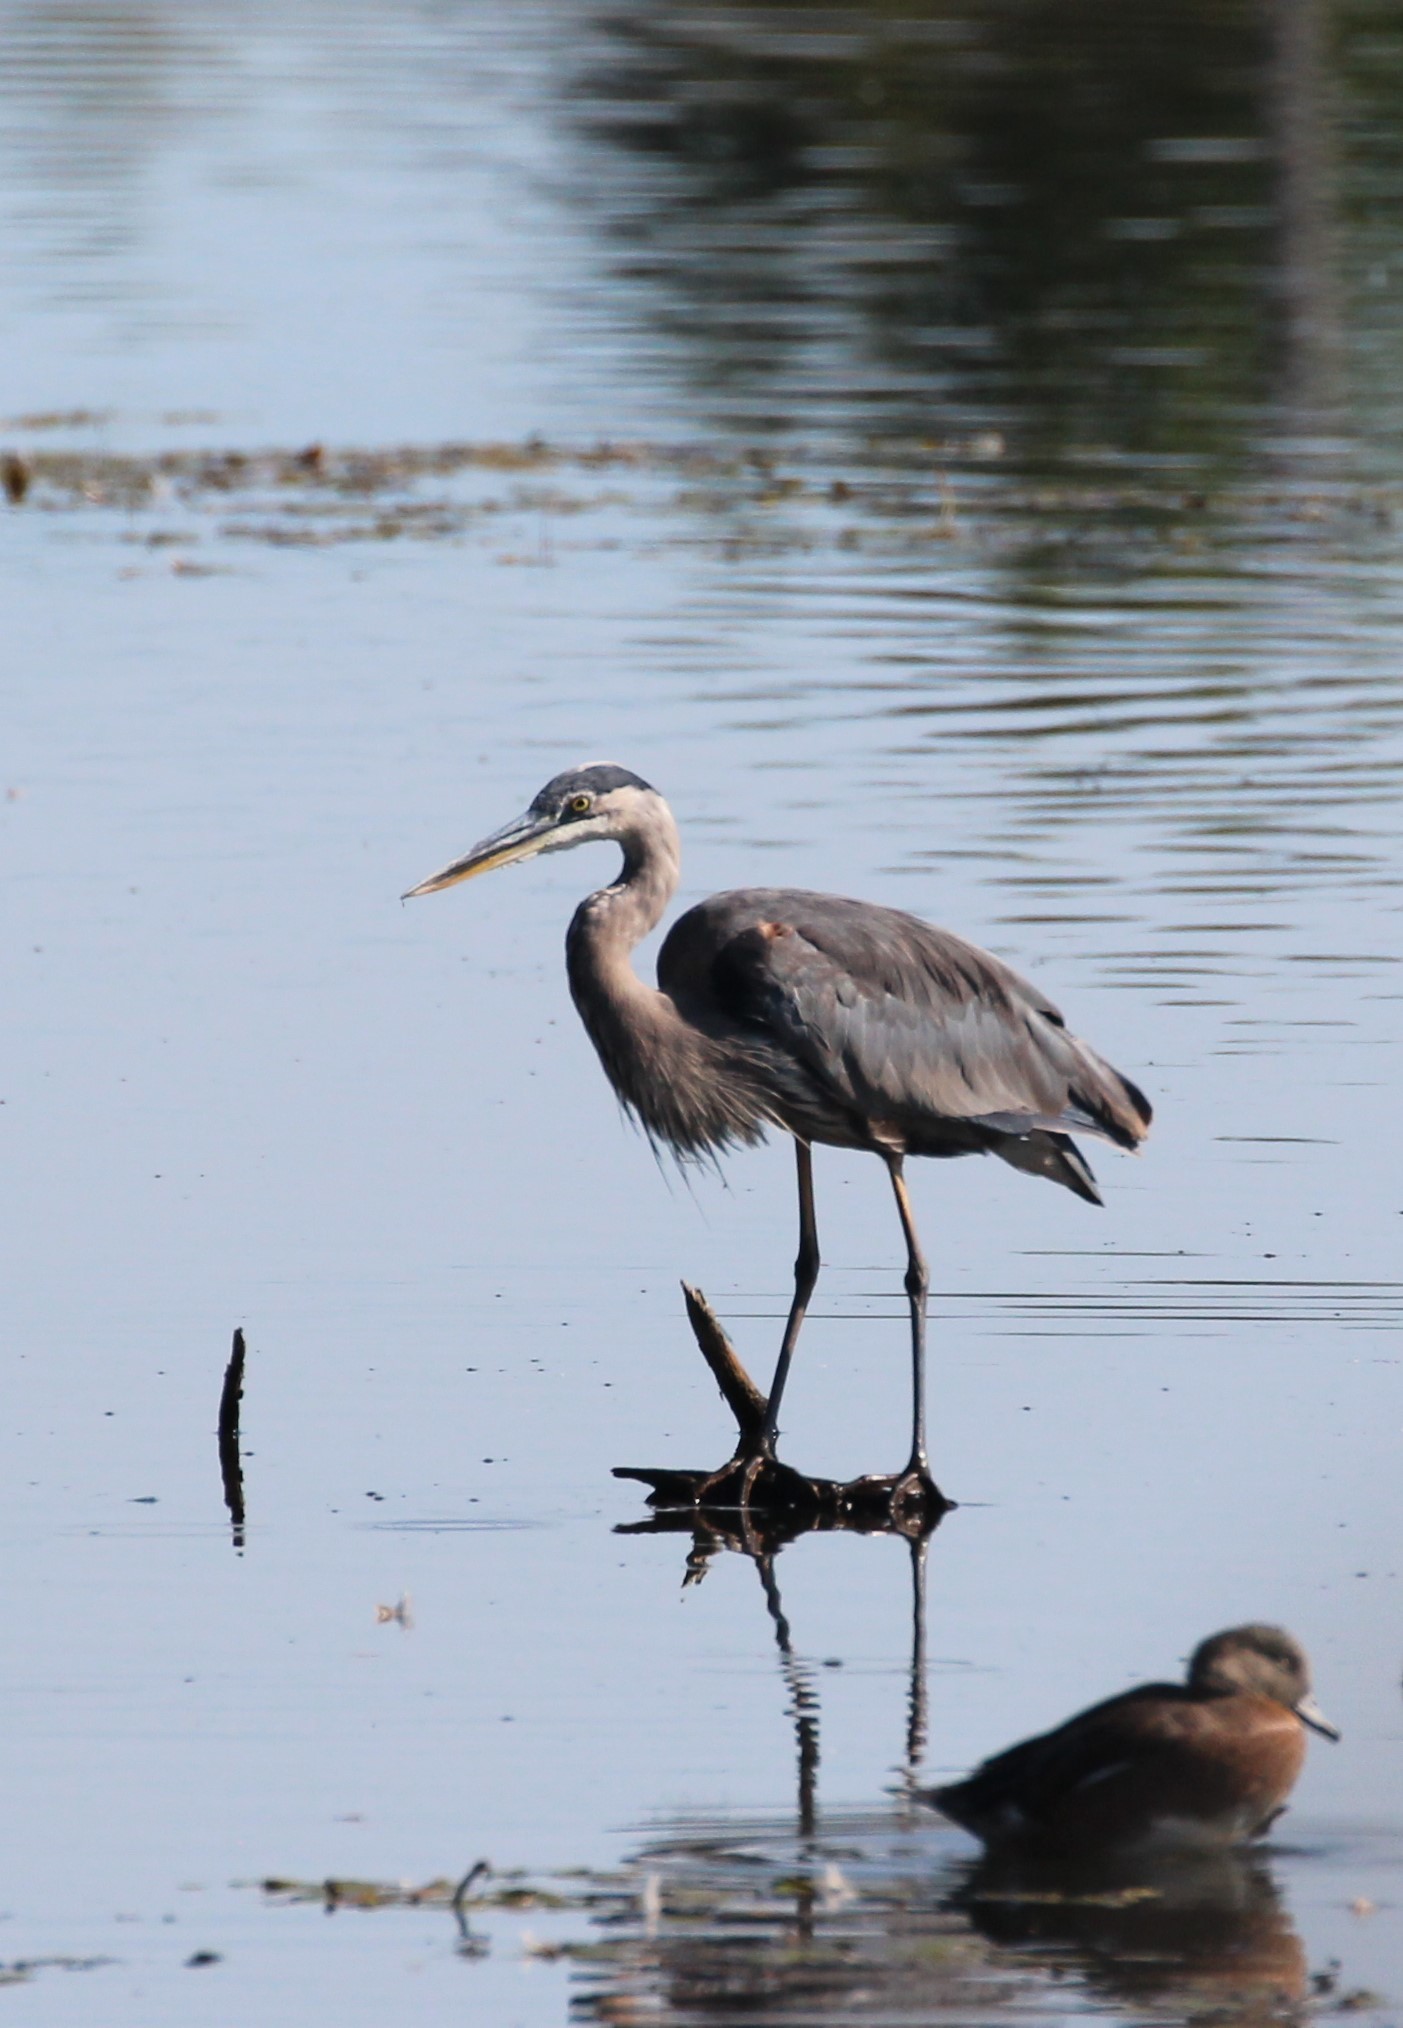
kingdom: Animalia
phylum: Chordata
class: Aves
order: Pelecaniformes
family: Ardeidae
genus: Ardea
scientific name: Ardea herodias
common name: Great blue heron
